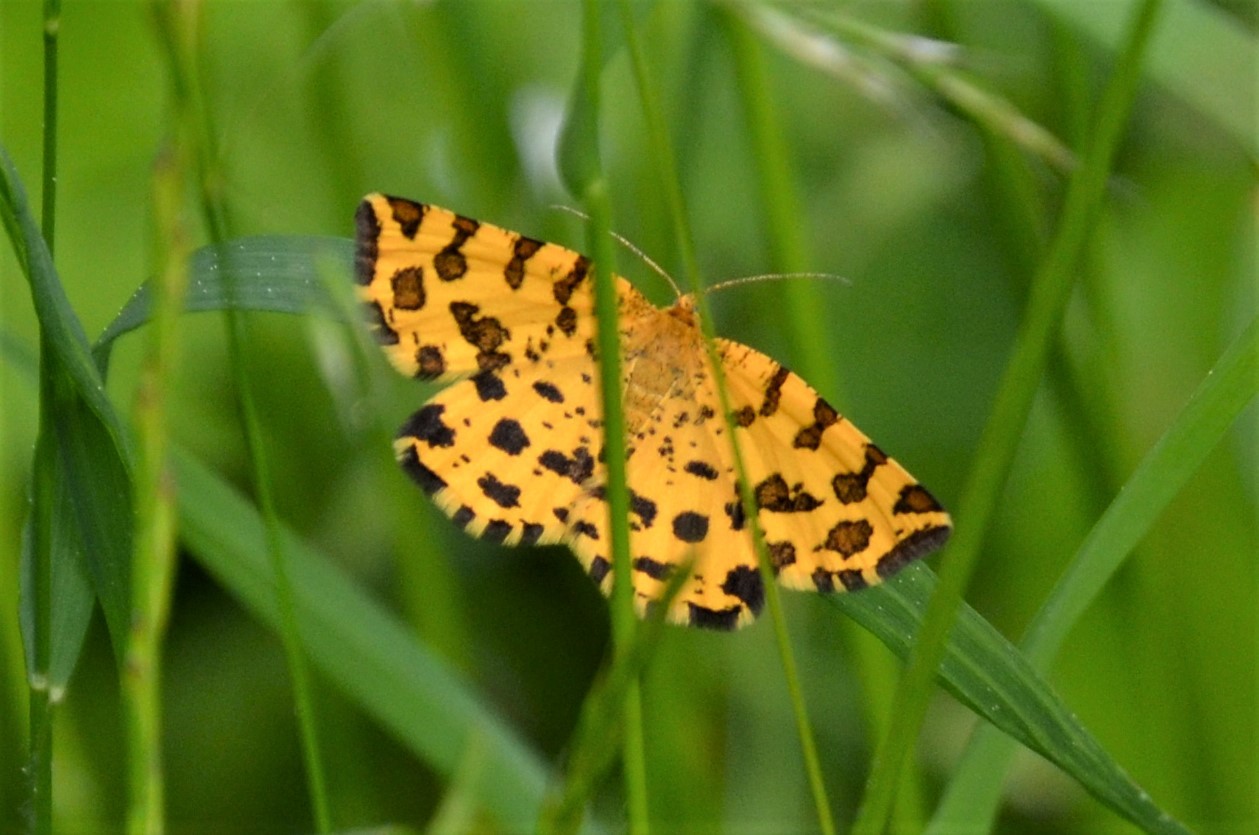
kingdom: Animalia
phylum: Arthropoda
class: Insecta
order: Lepidoptera
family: Geometridae
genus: Pseudopanthera
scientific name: Pseudopanthera macularia
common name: Speckled yellow
